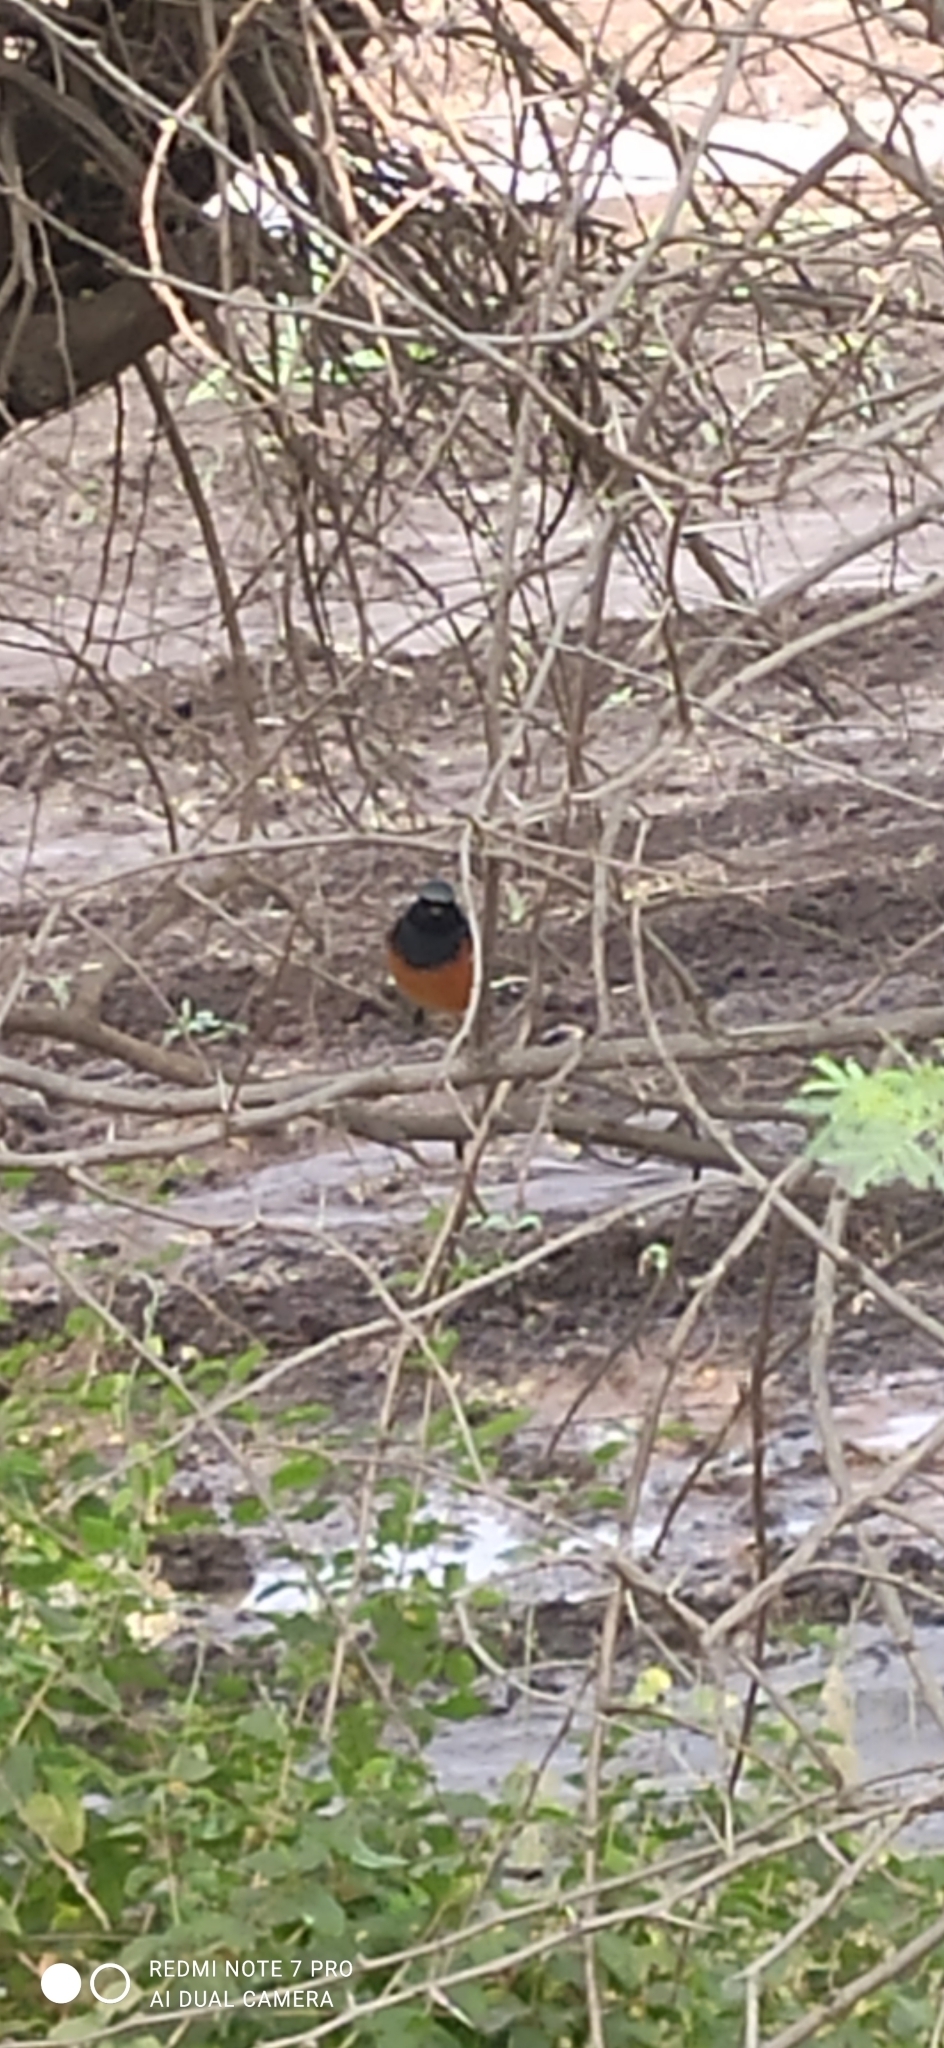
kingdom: Animalia
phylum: Chordata
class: Aves
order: Passeriformes
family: Muscicapidae
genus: Phoenicurus
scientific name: Phoenicurus ochruros
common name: Black redstart
